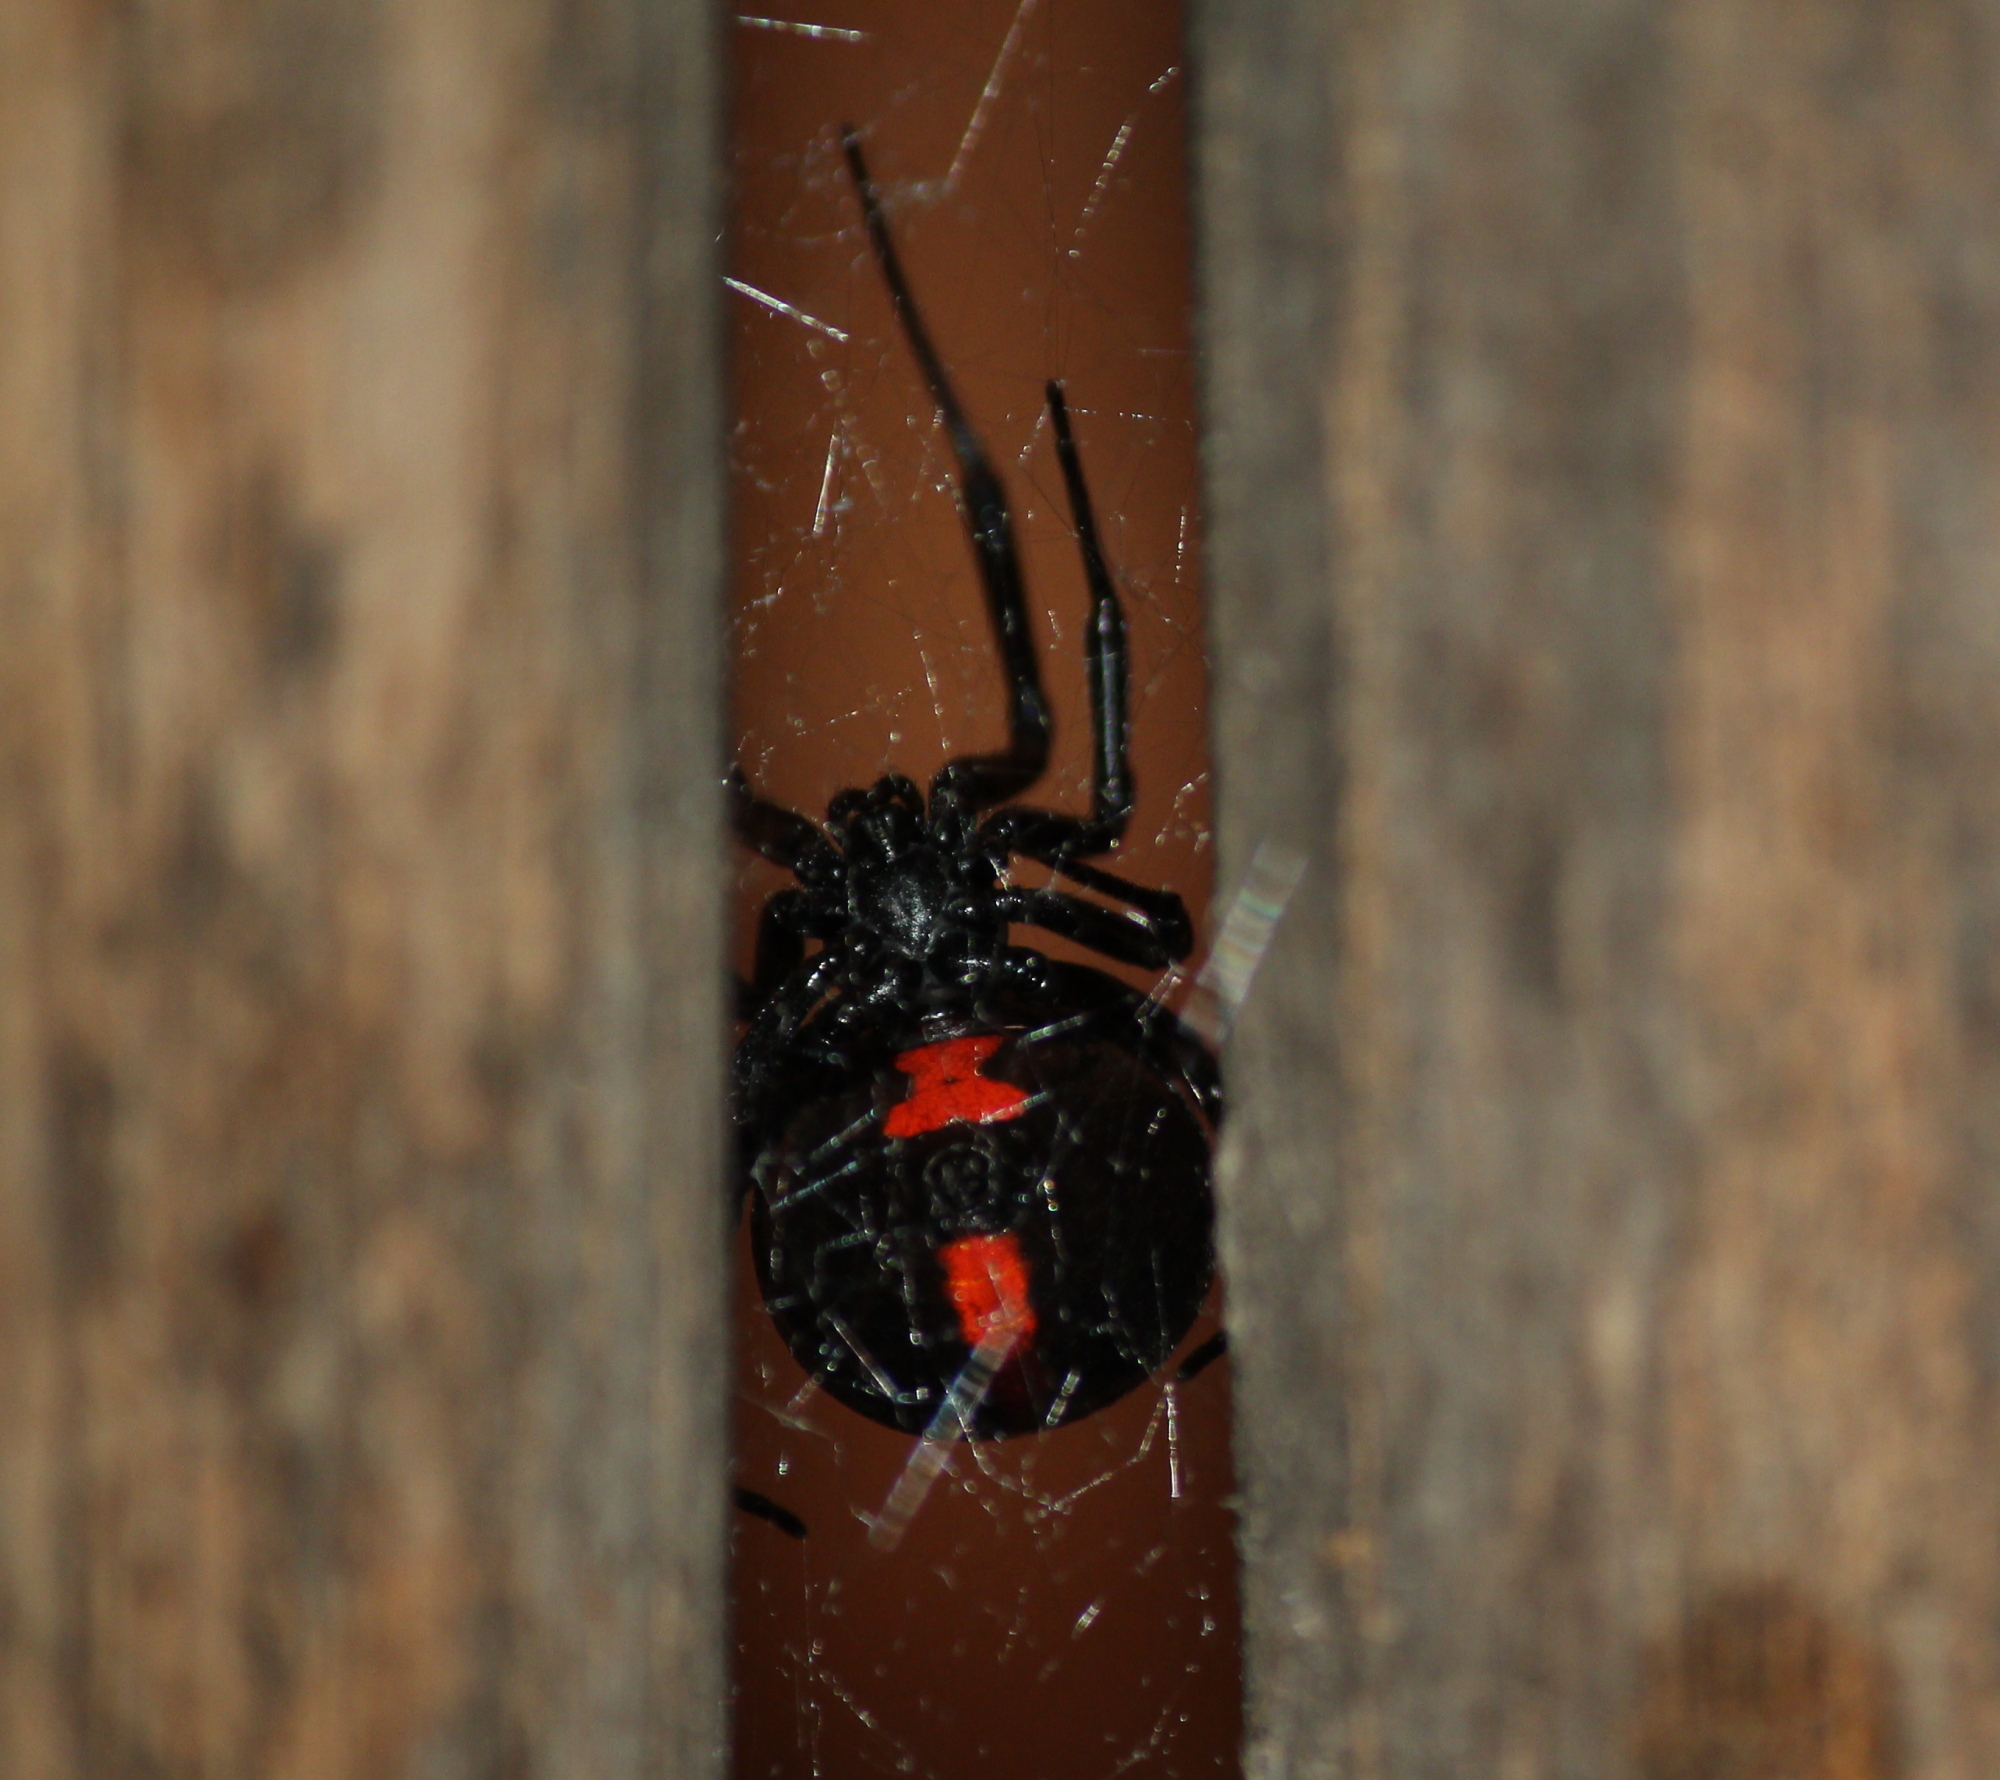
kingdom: Animalia
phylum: Arthropoda
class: Arachnida
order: Araneae
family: Theridiidae
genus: Latrodectus
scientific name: Latrodectus mactans
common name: Cobweb spiders
